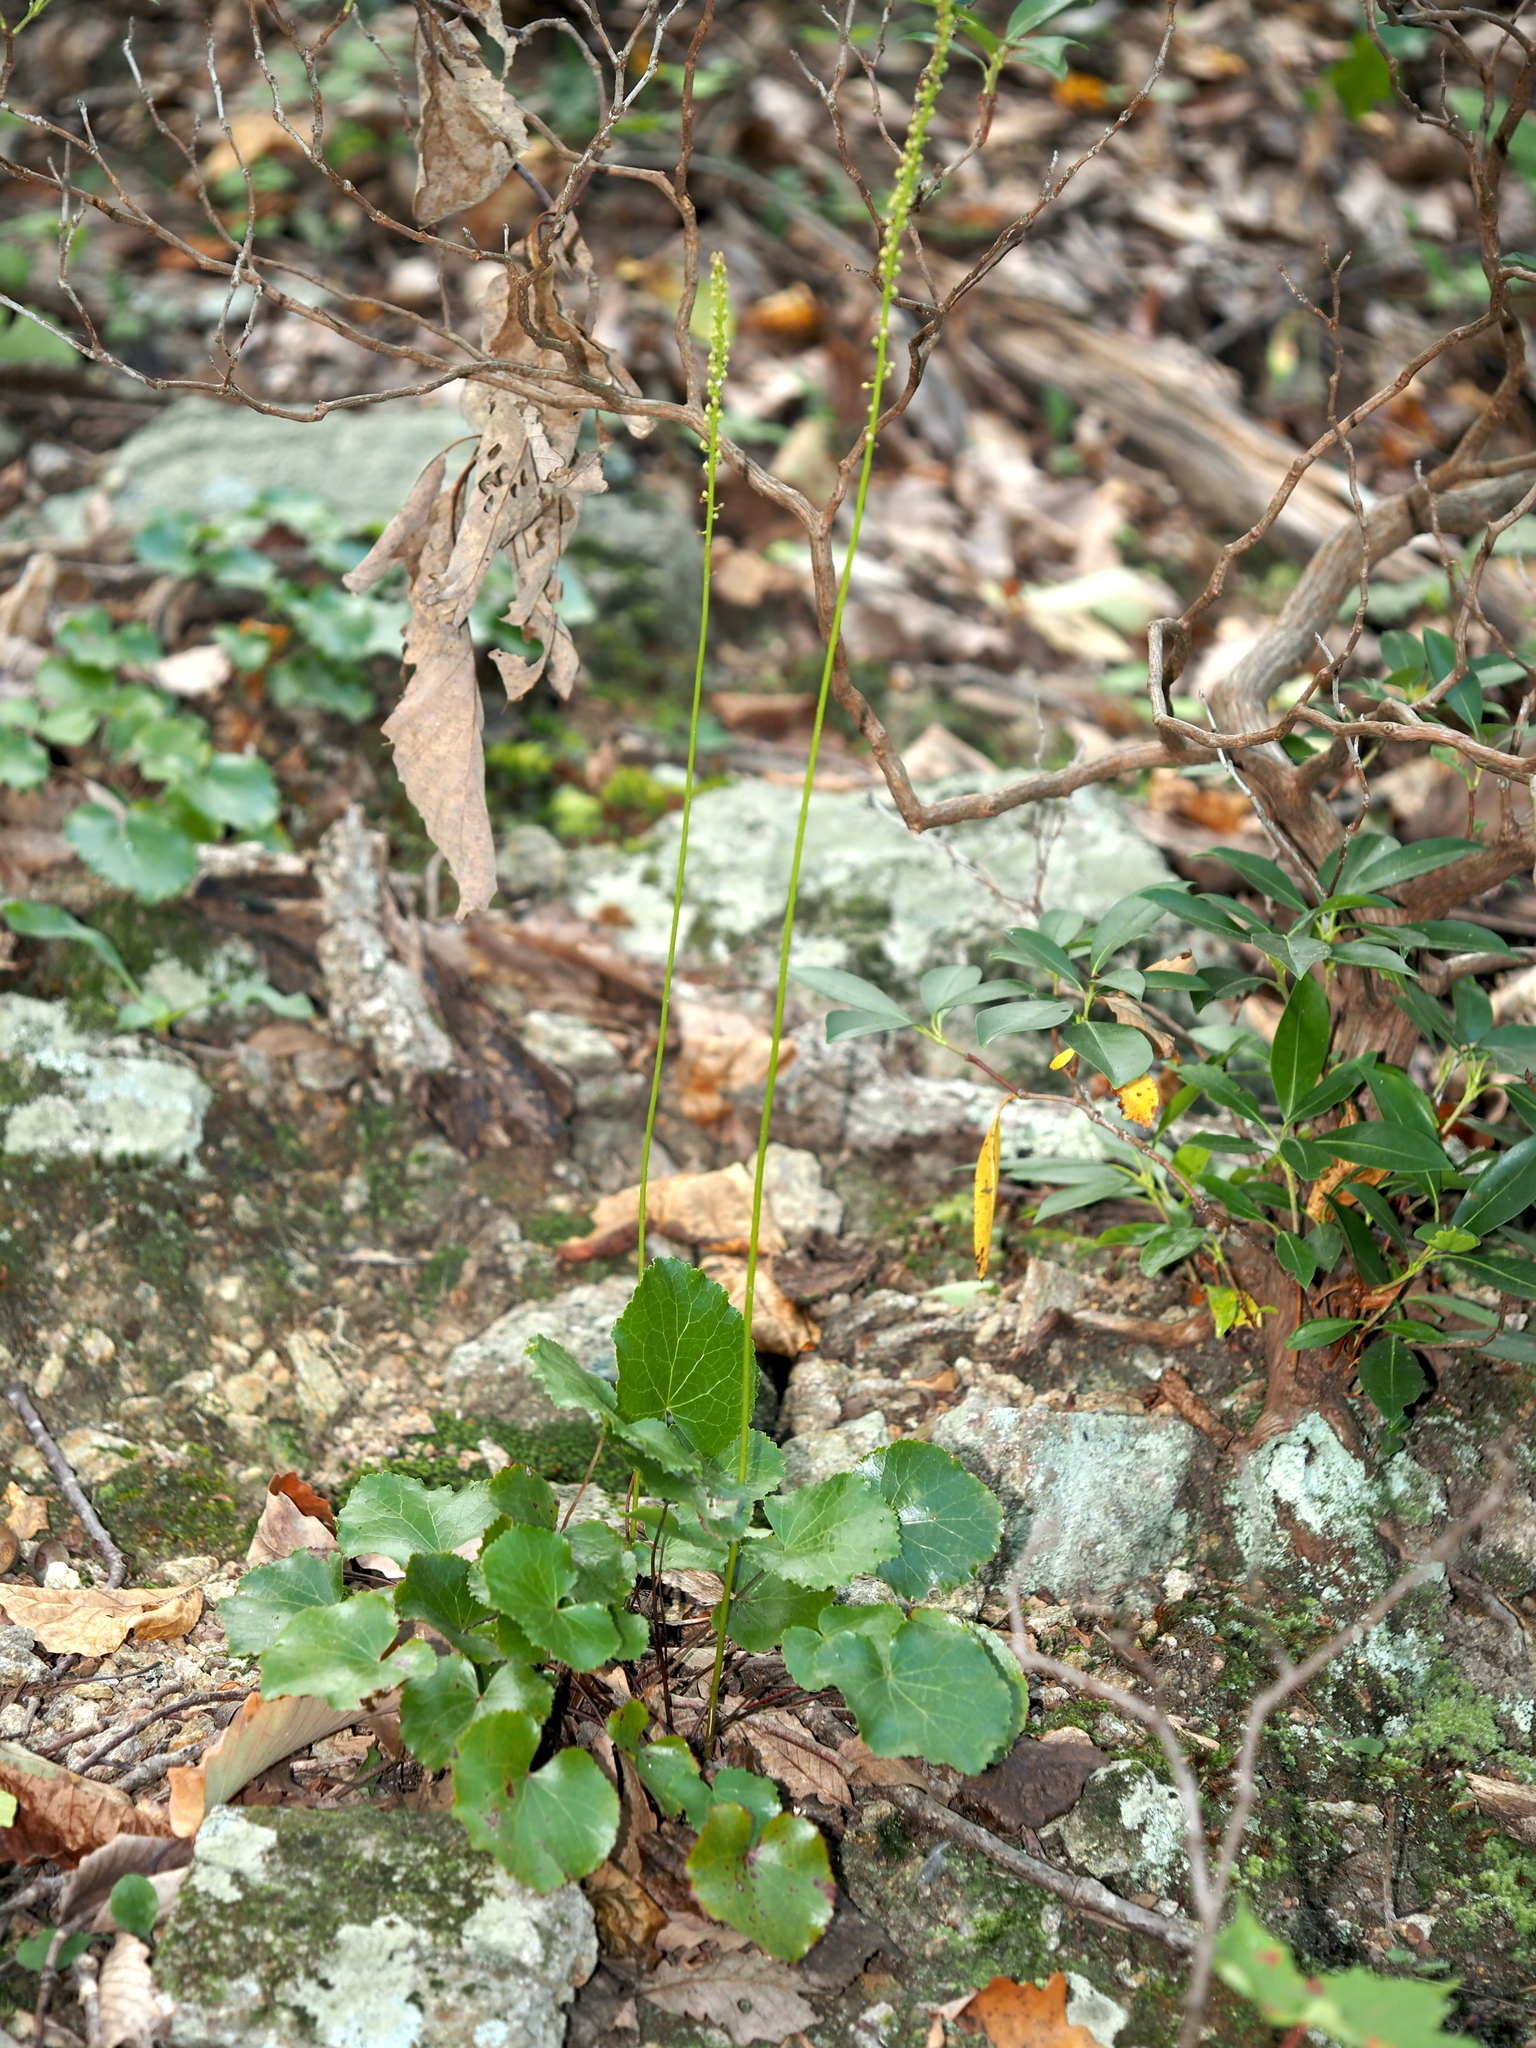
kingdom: Plantae
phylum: Tracheophyta
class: Magnoliopsida
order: Ericales
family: Diapensiaceae
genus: Galax
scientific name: Galax urceolata
